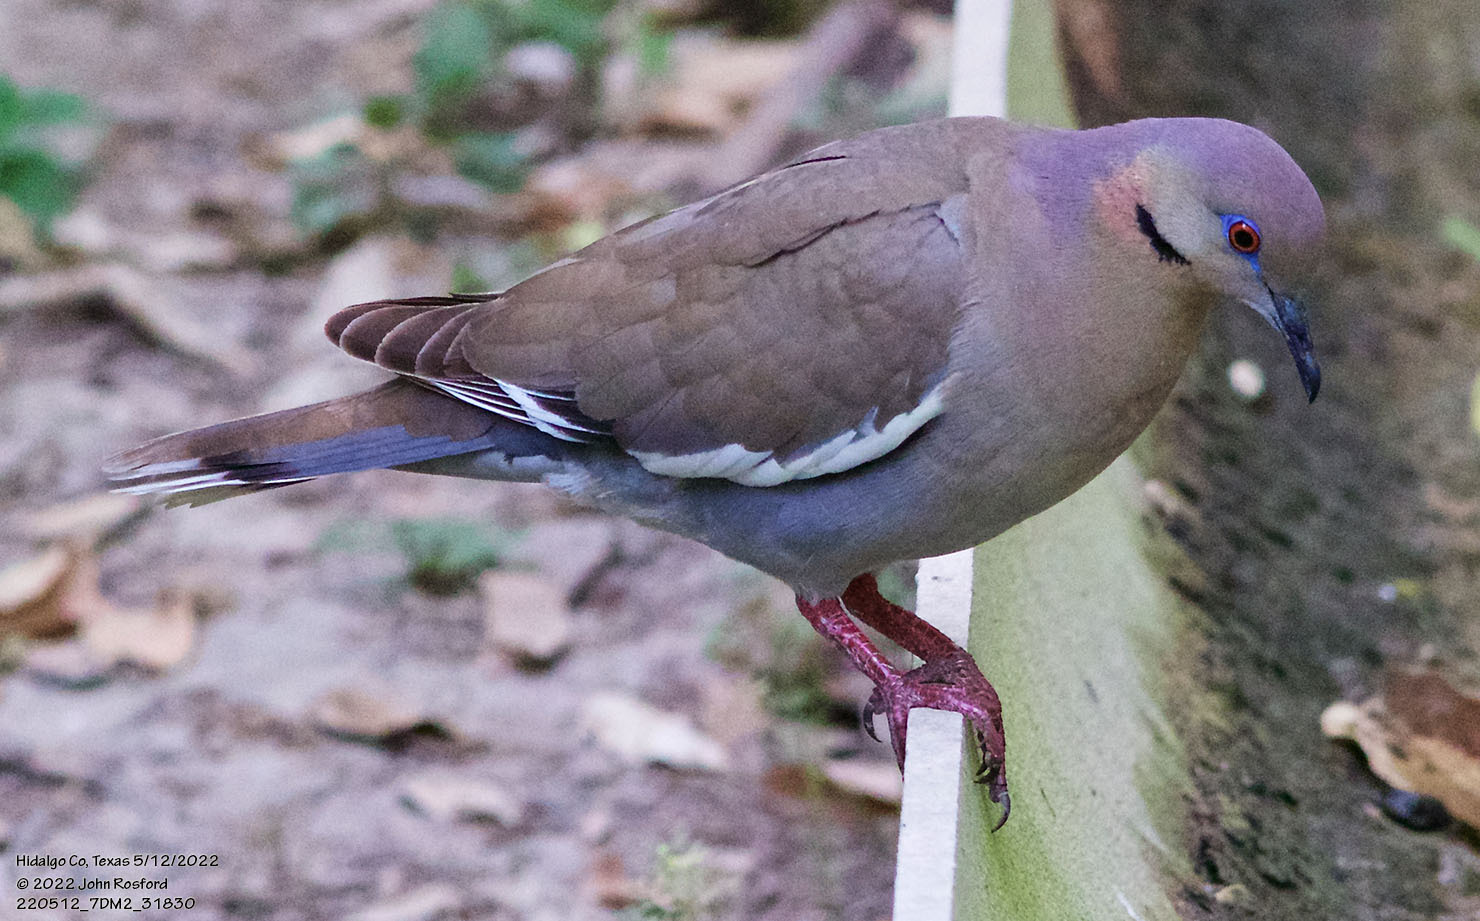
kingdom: Animalia
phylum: Chordata
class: Aves
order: Columbiformes
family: Columbidae
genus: Zenaida
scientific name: Zenaida asiatica
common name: White-winged dove
